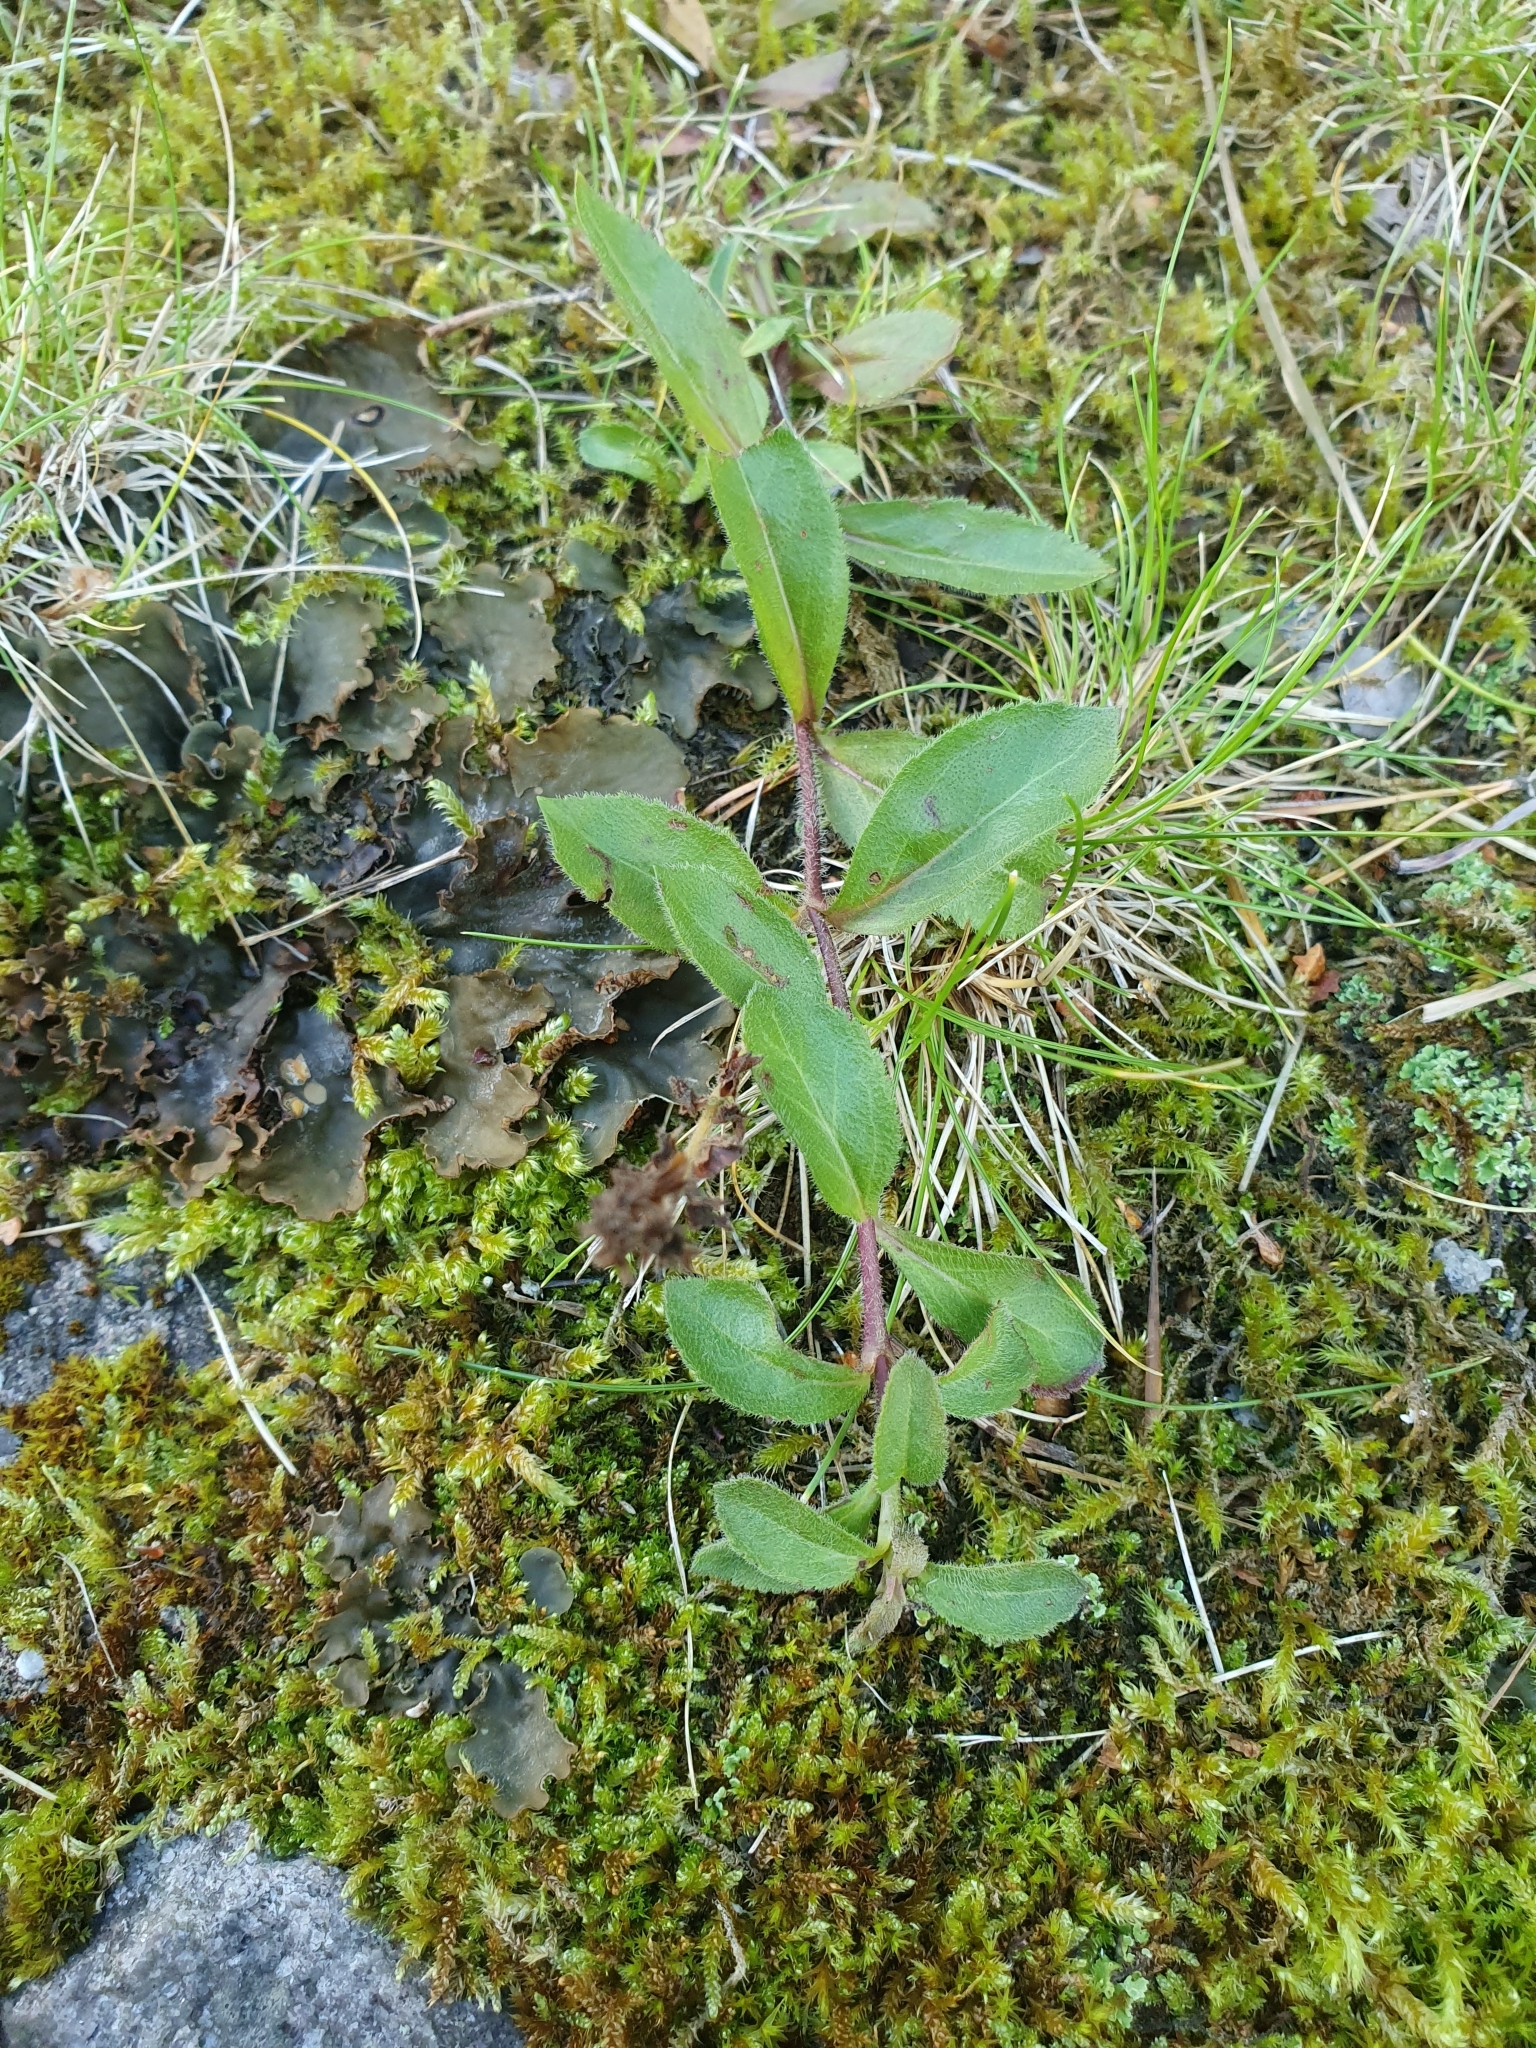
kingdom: Plantae
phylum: Tracheophyta
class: Magnoliopsida
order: Lamiales
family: Plantaginaceae
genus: Veronica
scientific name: Veronica officinalis
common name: Common speedwell
